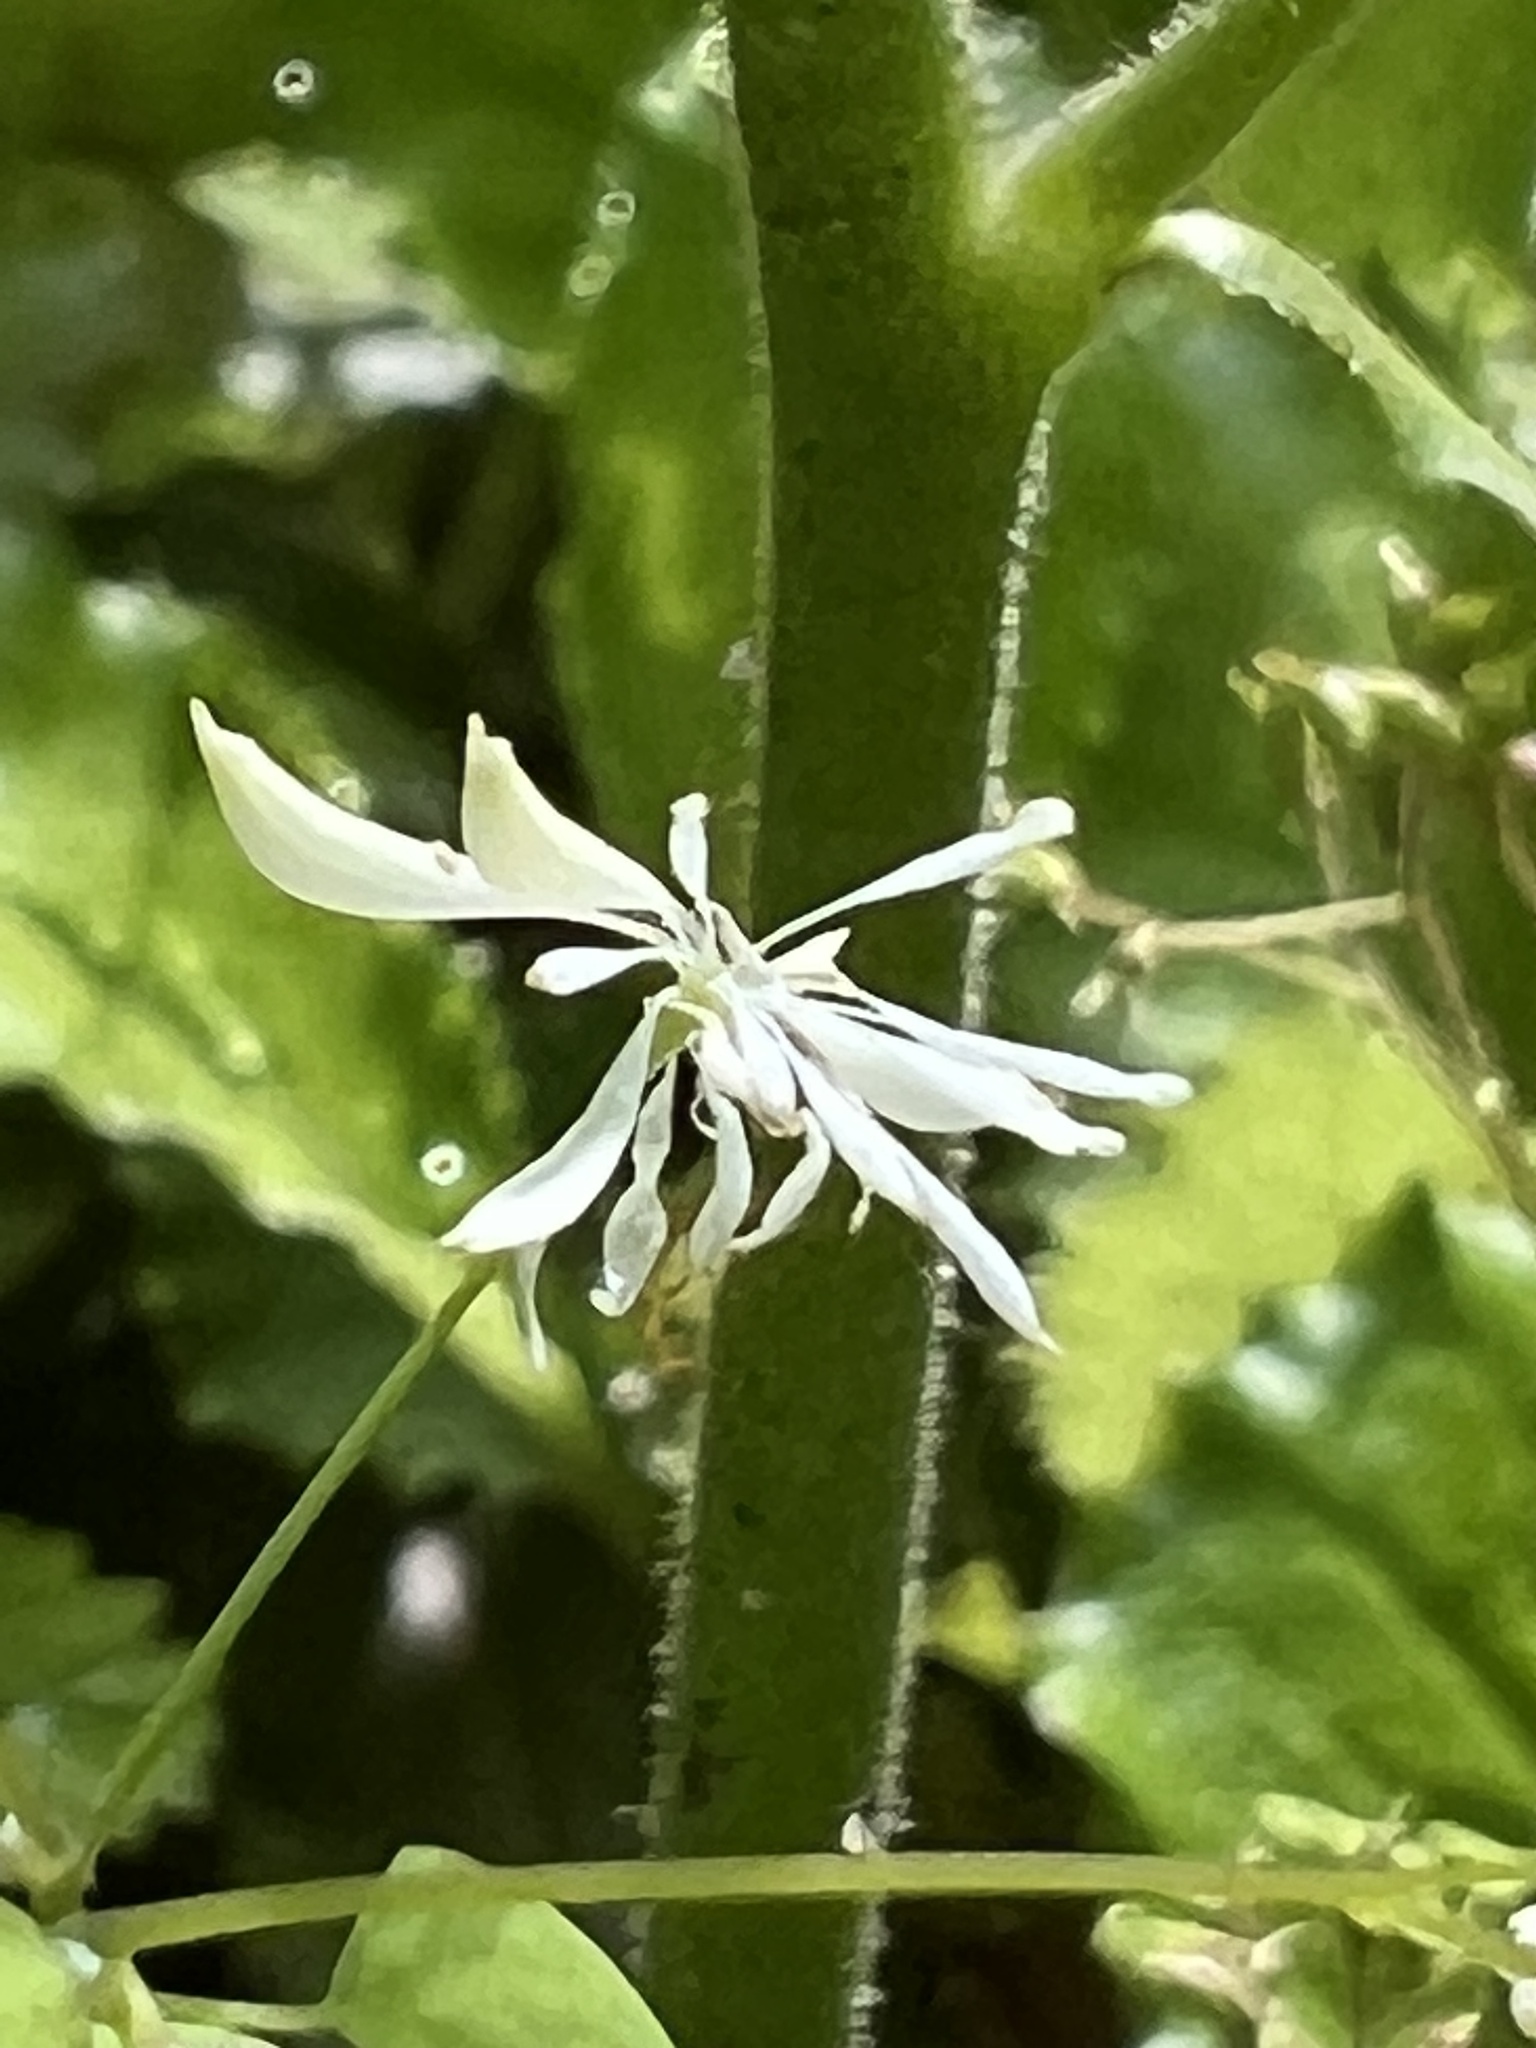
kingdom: Plantae
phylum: Tracheophyta
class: Magnoliopsida
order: Ranunculales
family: Ranunculaceae
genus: Thalictrum
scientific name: Thalictrum clavatum
